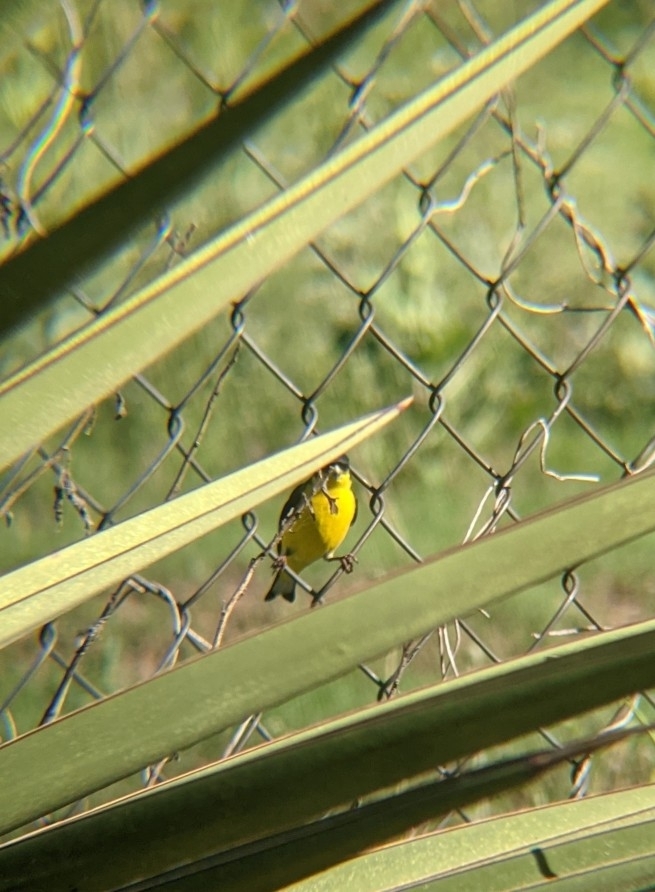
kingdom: Animalia
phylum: Chordata
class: Aves
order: Passeriformes
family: Fringillidae
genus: Spinus
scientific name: Spinus psaltria
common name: Lesser goldfinch
